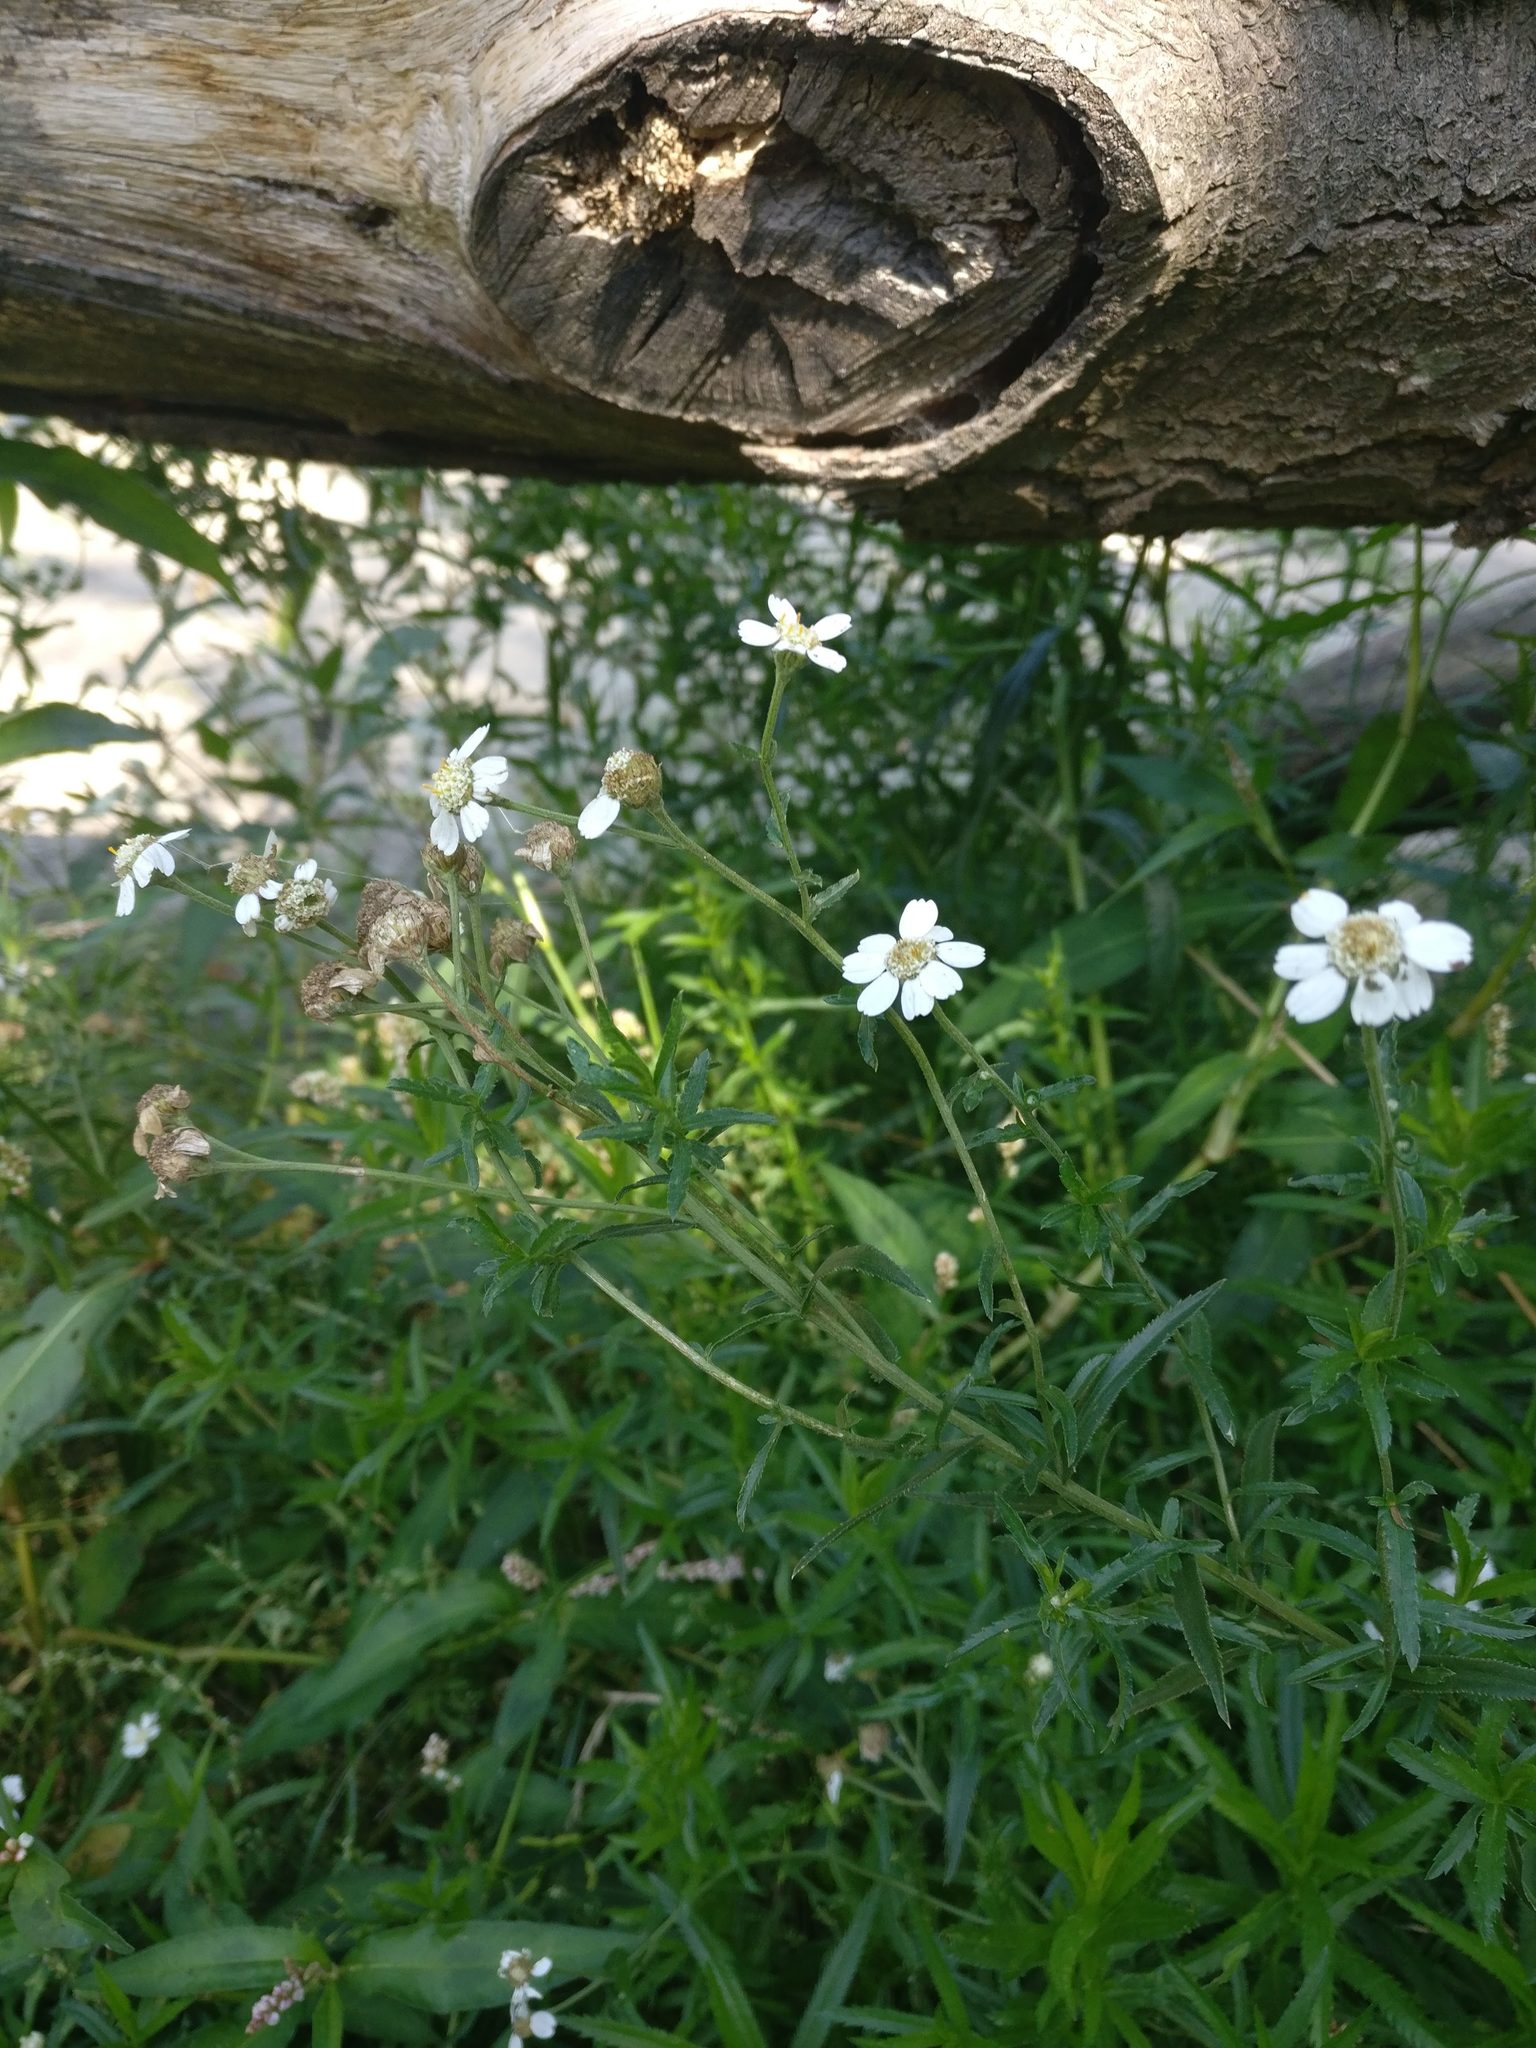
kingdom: Plantae
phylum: Tracheophyta
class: Magnoliopsida
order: Asterales
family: Asteraceae
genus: Achillea
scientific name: Achillea ptarmica
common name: Sneezeweed
